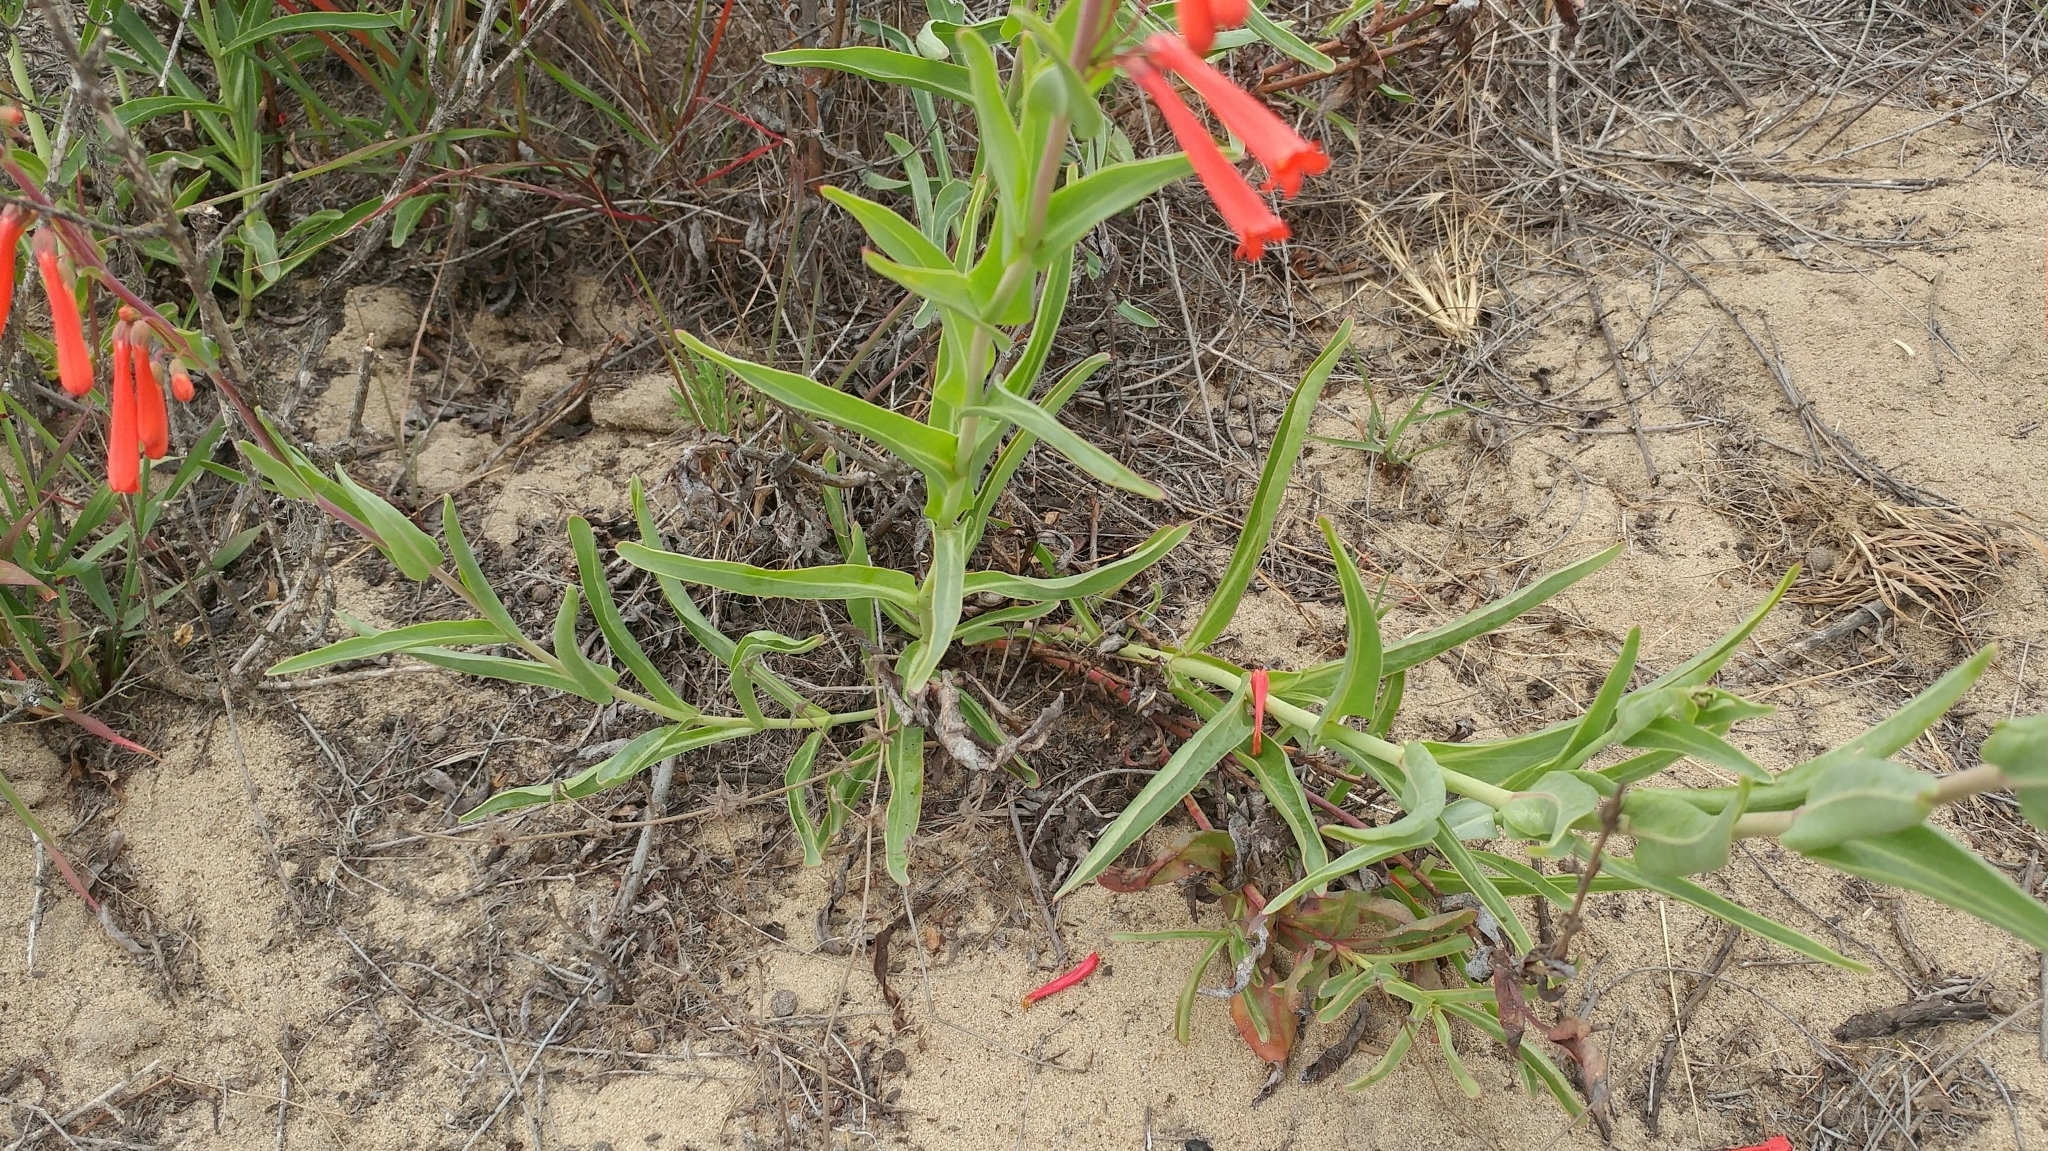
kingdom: Plantae
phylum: Tracheophyta
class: Magnoliopsida
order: Lamiales
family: Plantaginaceae
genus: Penstemon
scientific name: Penstemon centranthifolius
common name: Scarlet bugler
